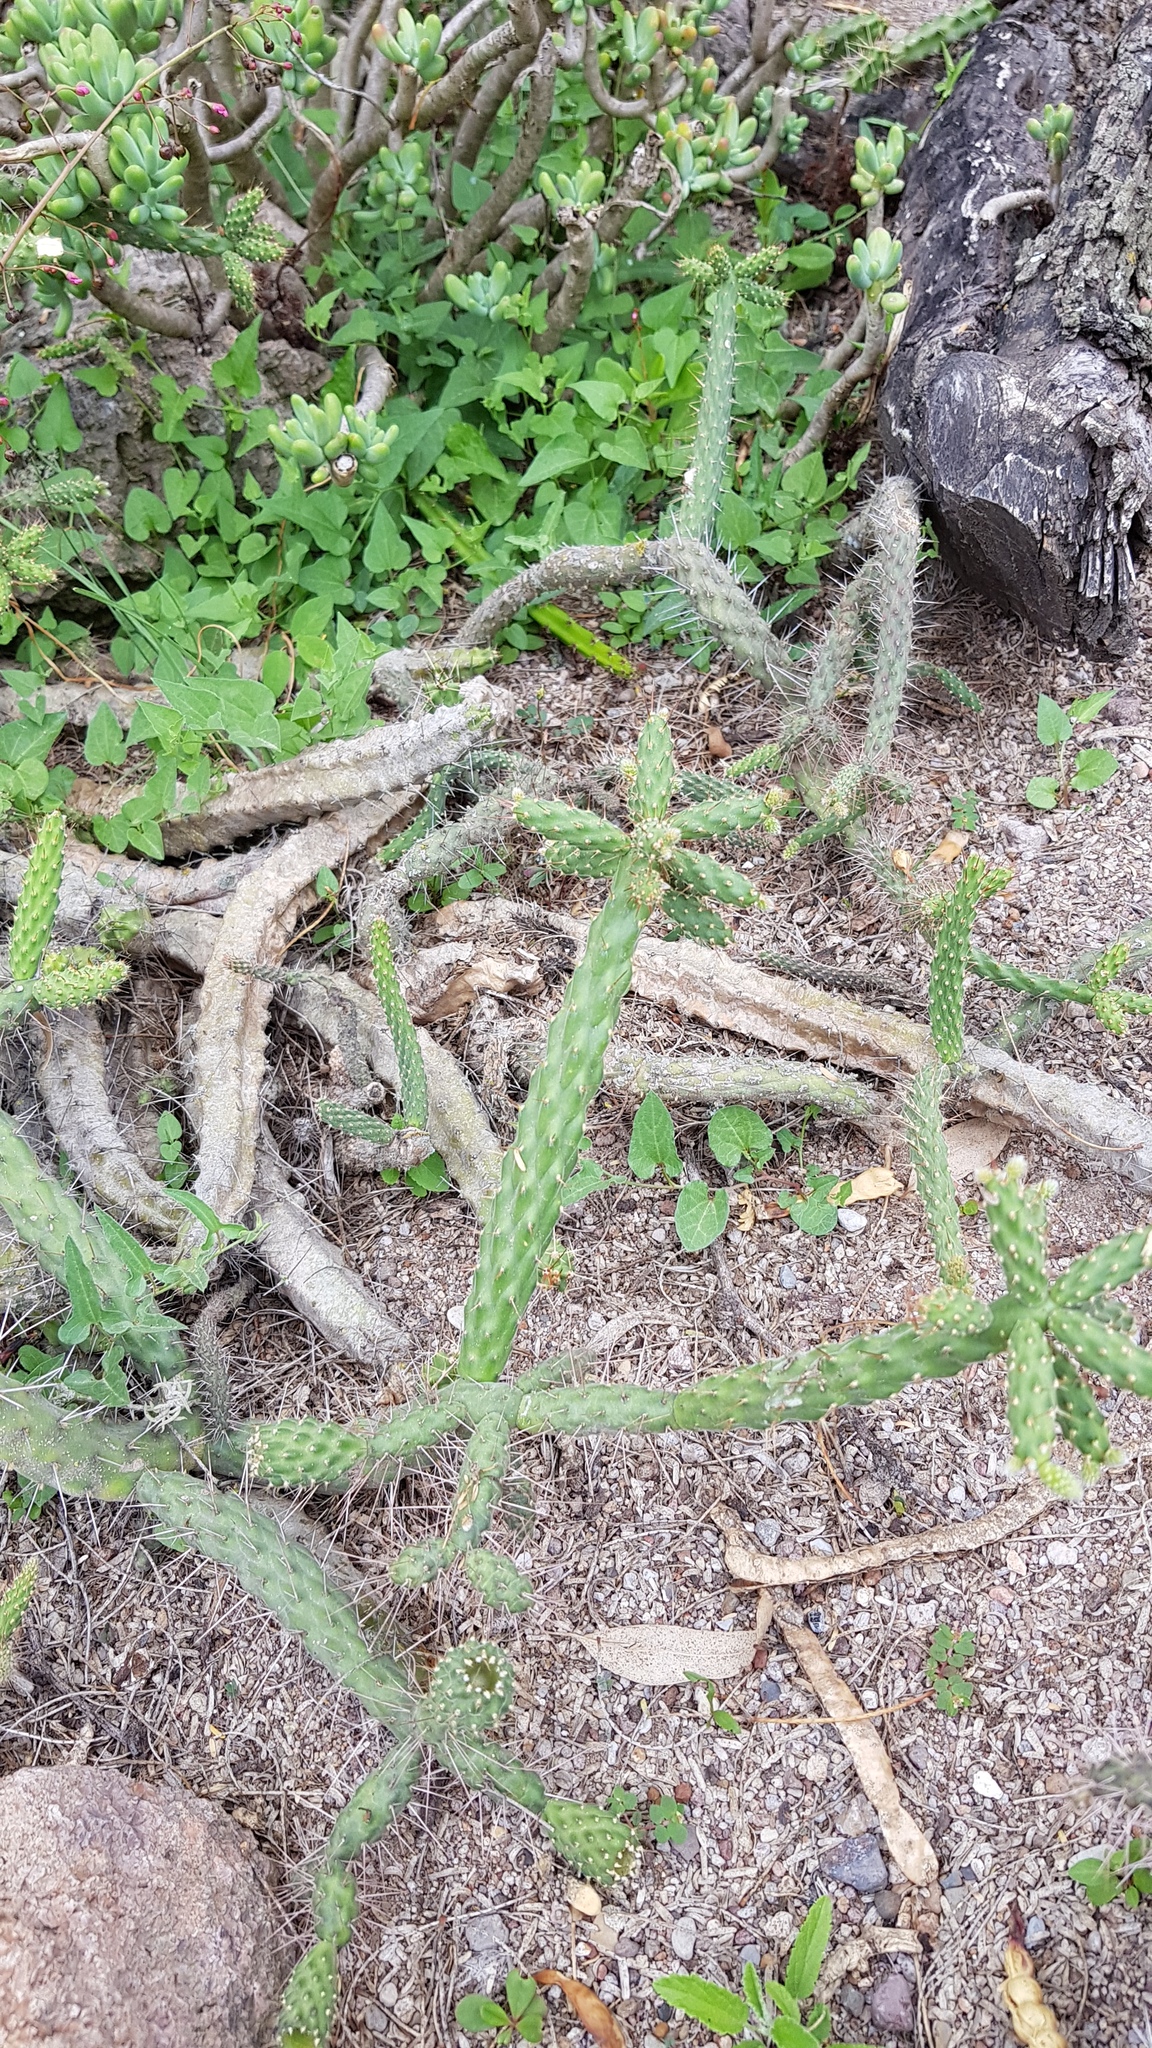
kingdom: Plantae
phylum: Tracheophyta
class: Magnoliopsida
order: Caryophyllales
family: Cactaceae
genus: Opuntia
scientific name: Opuntia pubescens
